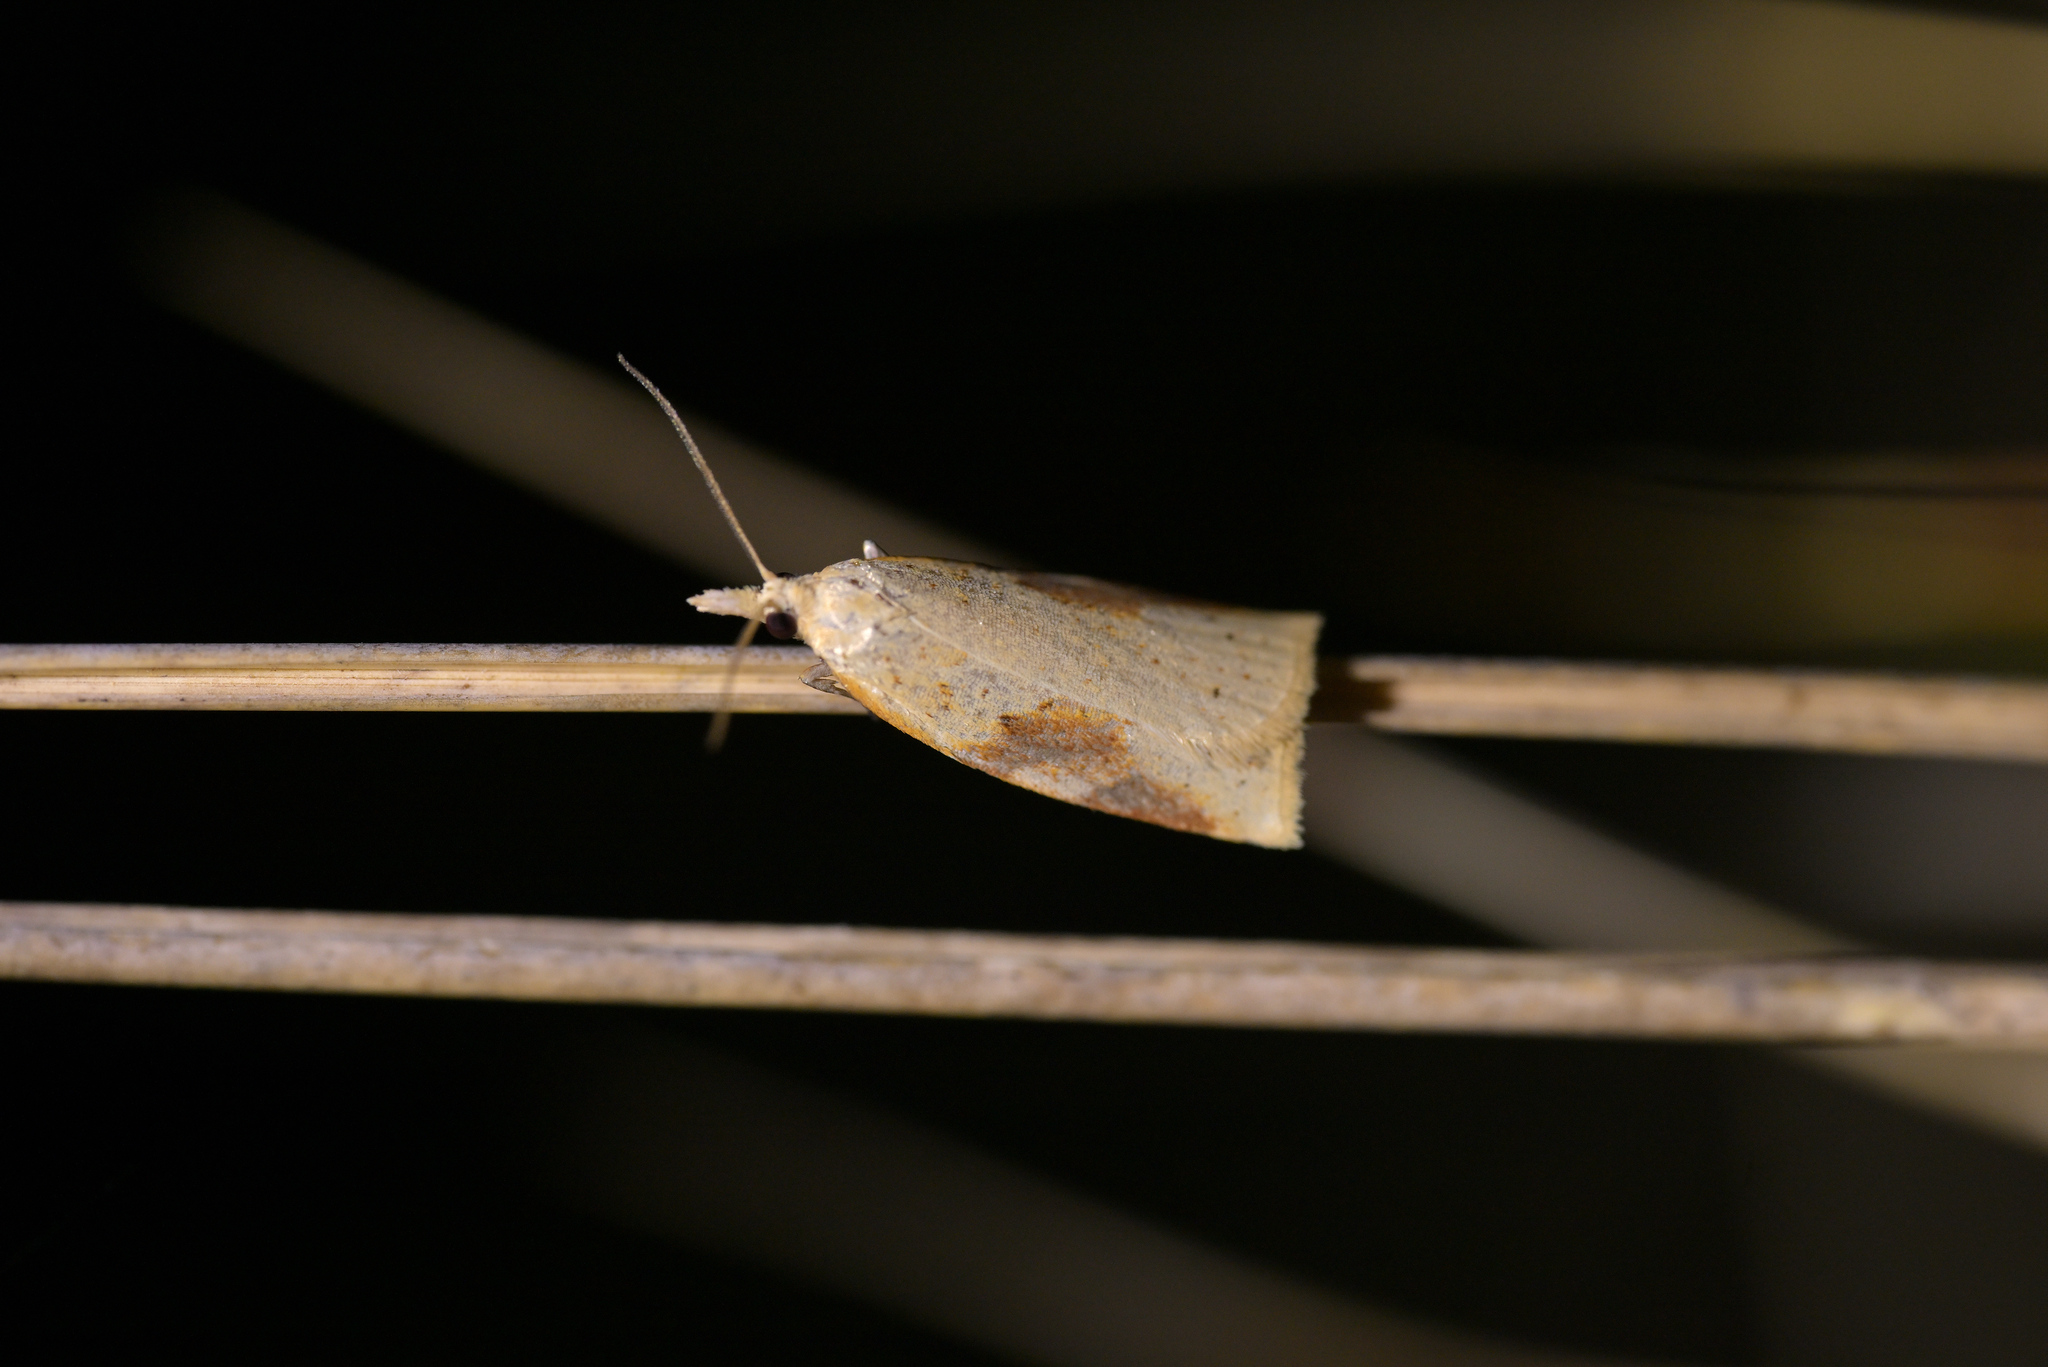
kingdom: Animalia
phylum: Arthropoda
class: Insecta
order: Lepidoptera
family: Tortricidae
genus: Apoctena
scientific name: Apoctena conditana
